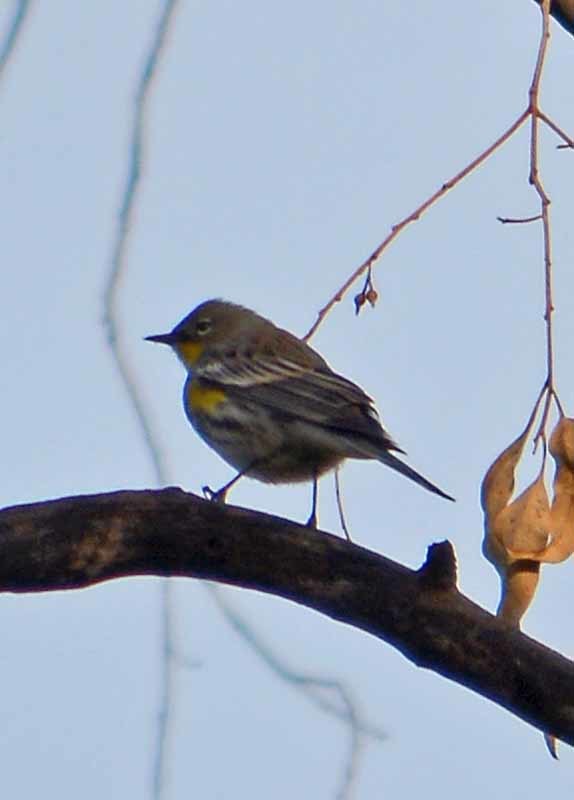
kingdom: Animalia
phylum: Chordata
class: Aves
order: Passeriformes
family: Parulidae
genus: Setophaga
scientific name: Setophaga coronata
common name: Myrtle warbler
